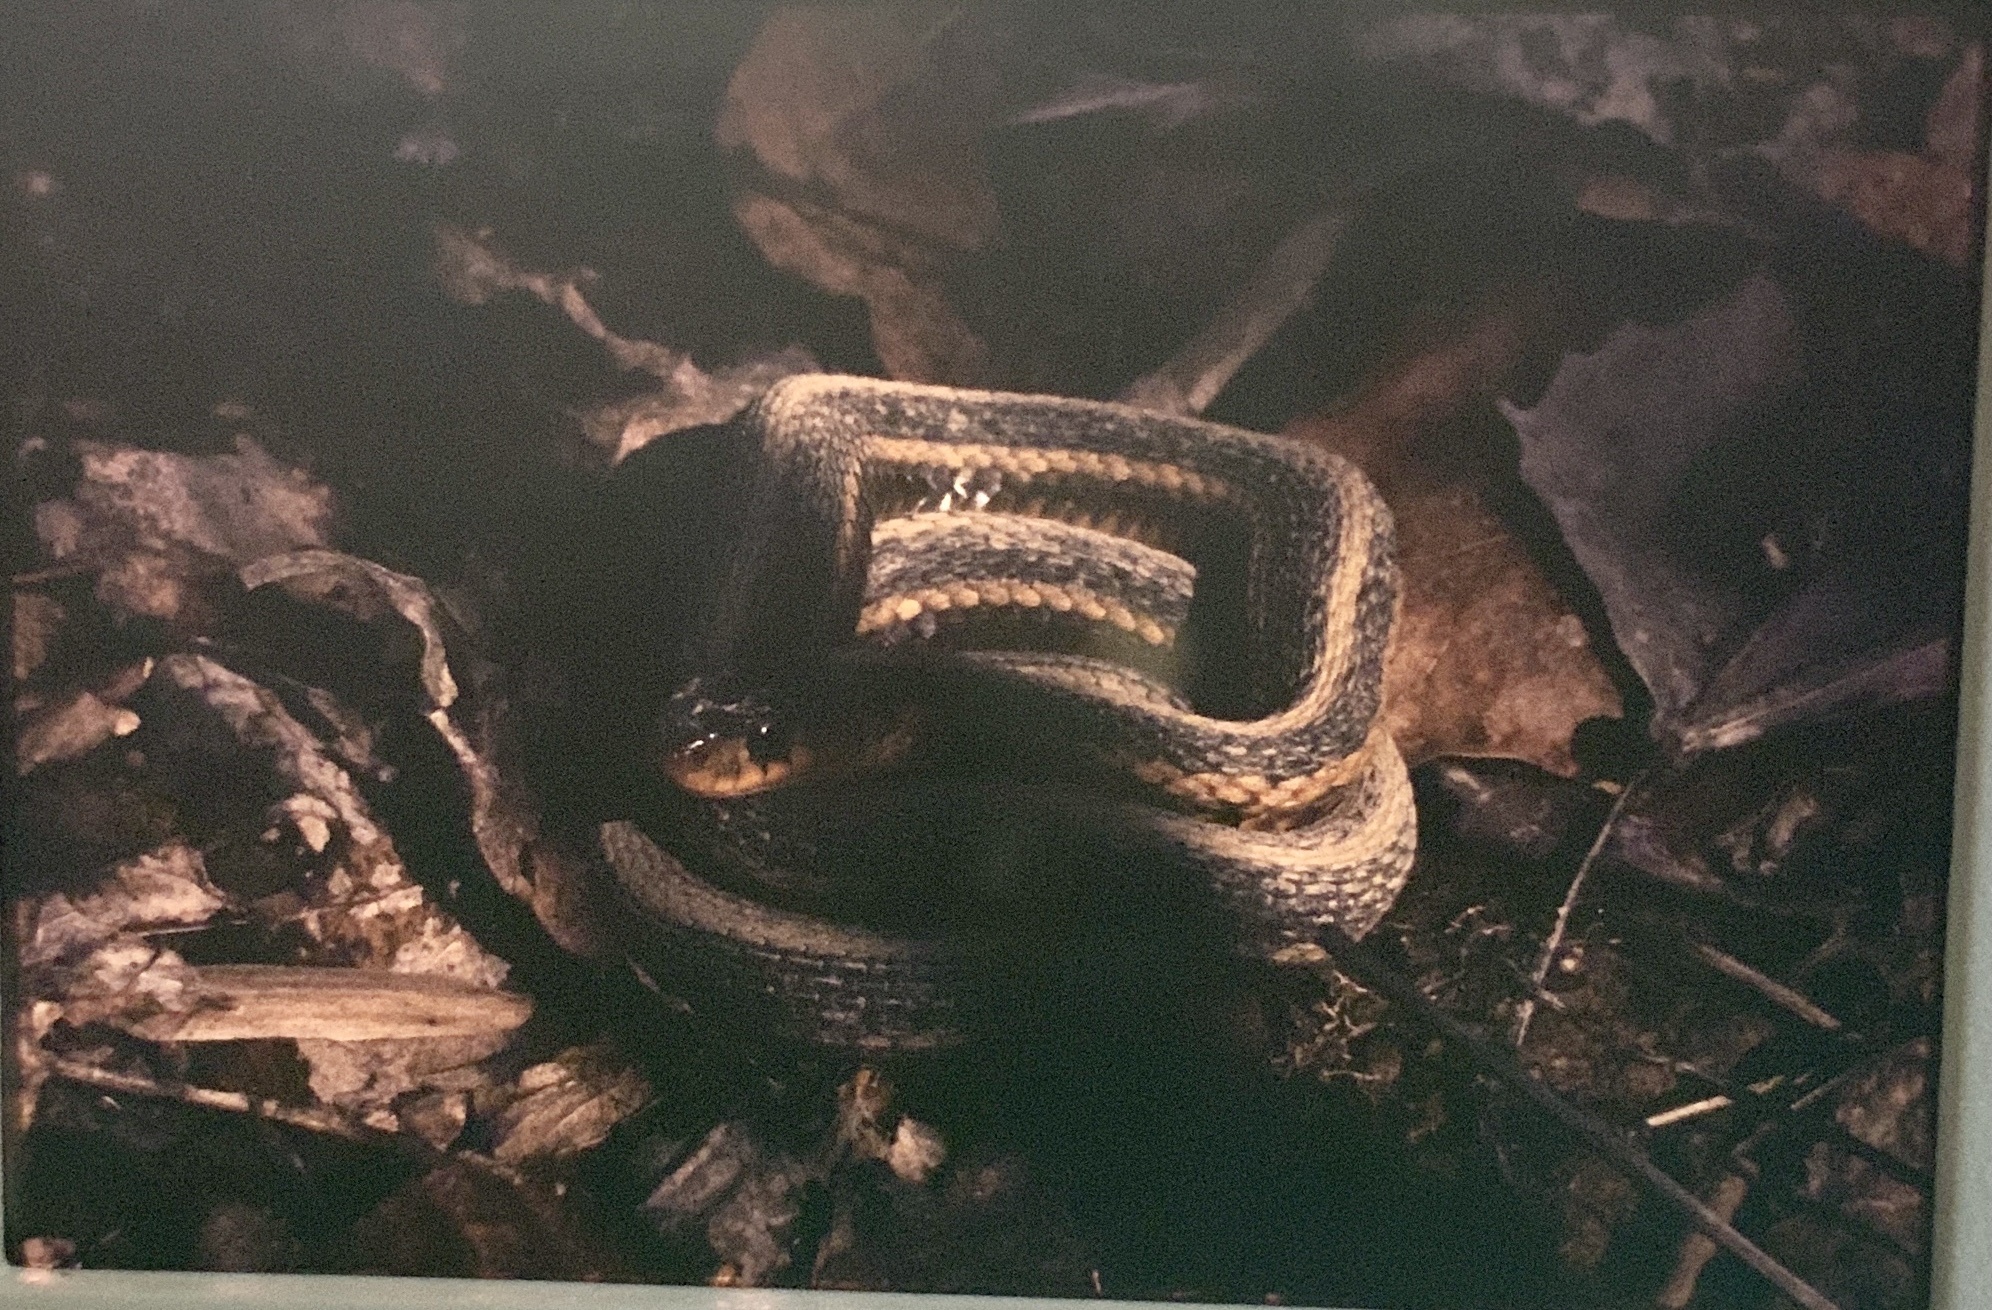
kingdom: Animalia
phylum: Chordata
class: Squamata
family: Colubridae
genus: Thamnophis
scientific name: Thamnophis sirtalis
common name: Common garter snake
